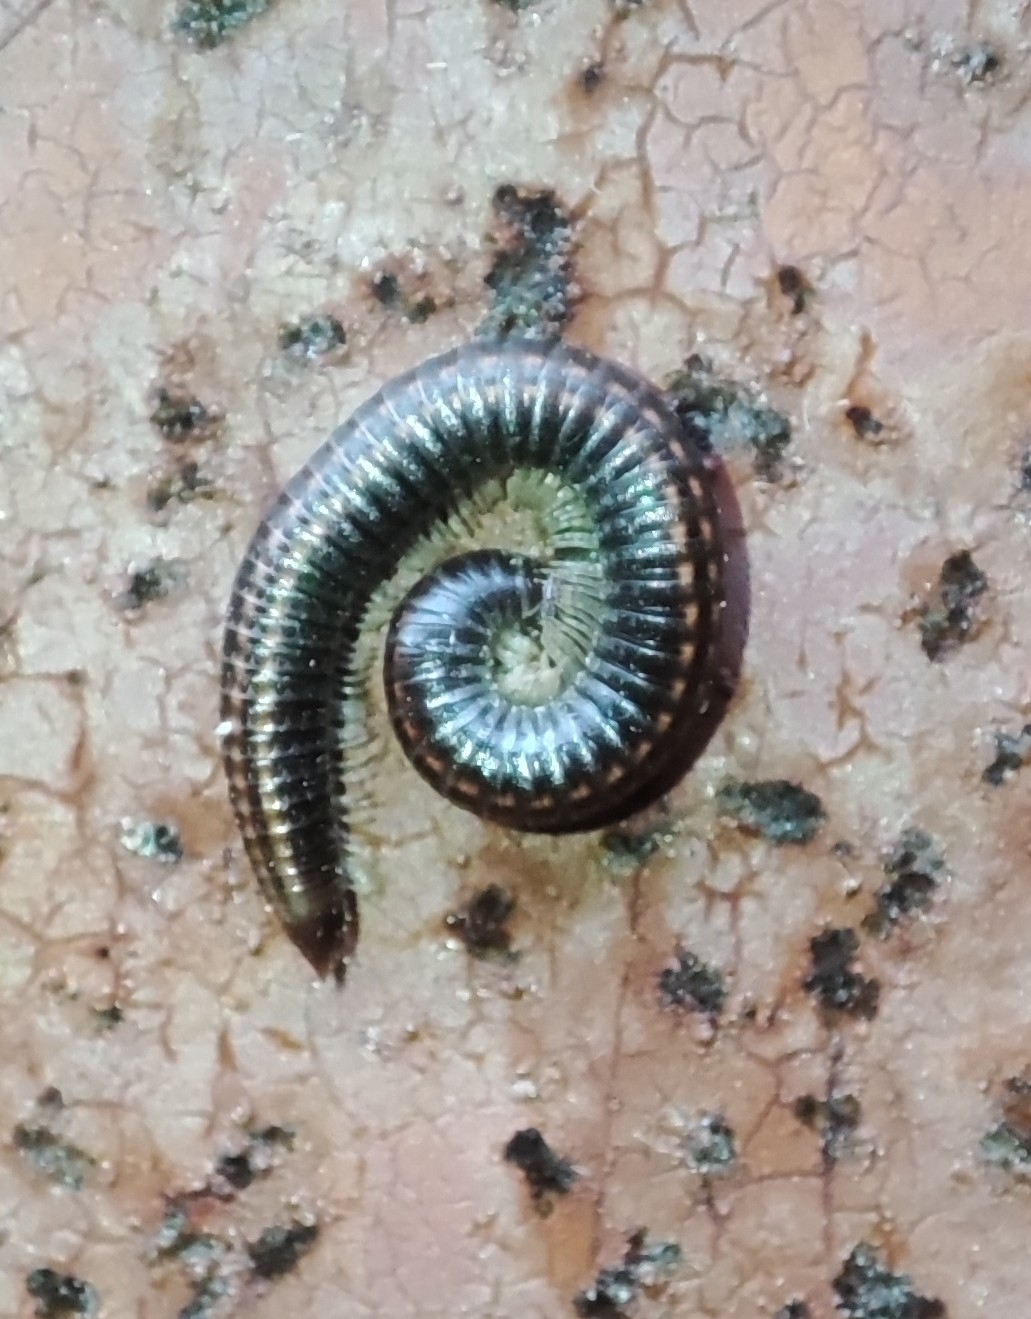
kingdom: Animalia
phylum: Arthropoda
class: Diplopoda
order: Julida
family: Julidae
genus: Ommatoiulus
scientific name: Ommatoiulus sabulosus
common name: Striped millipede
